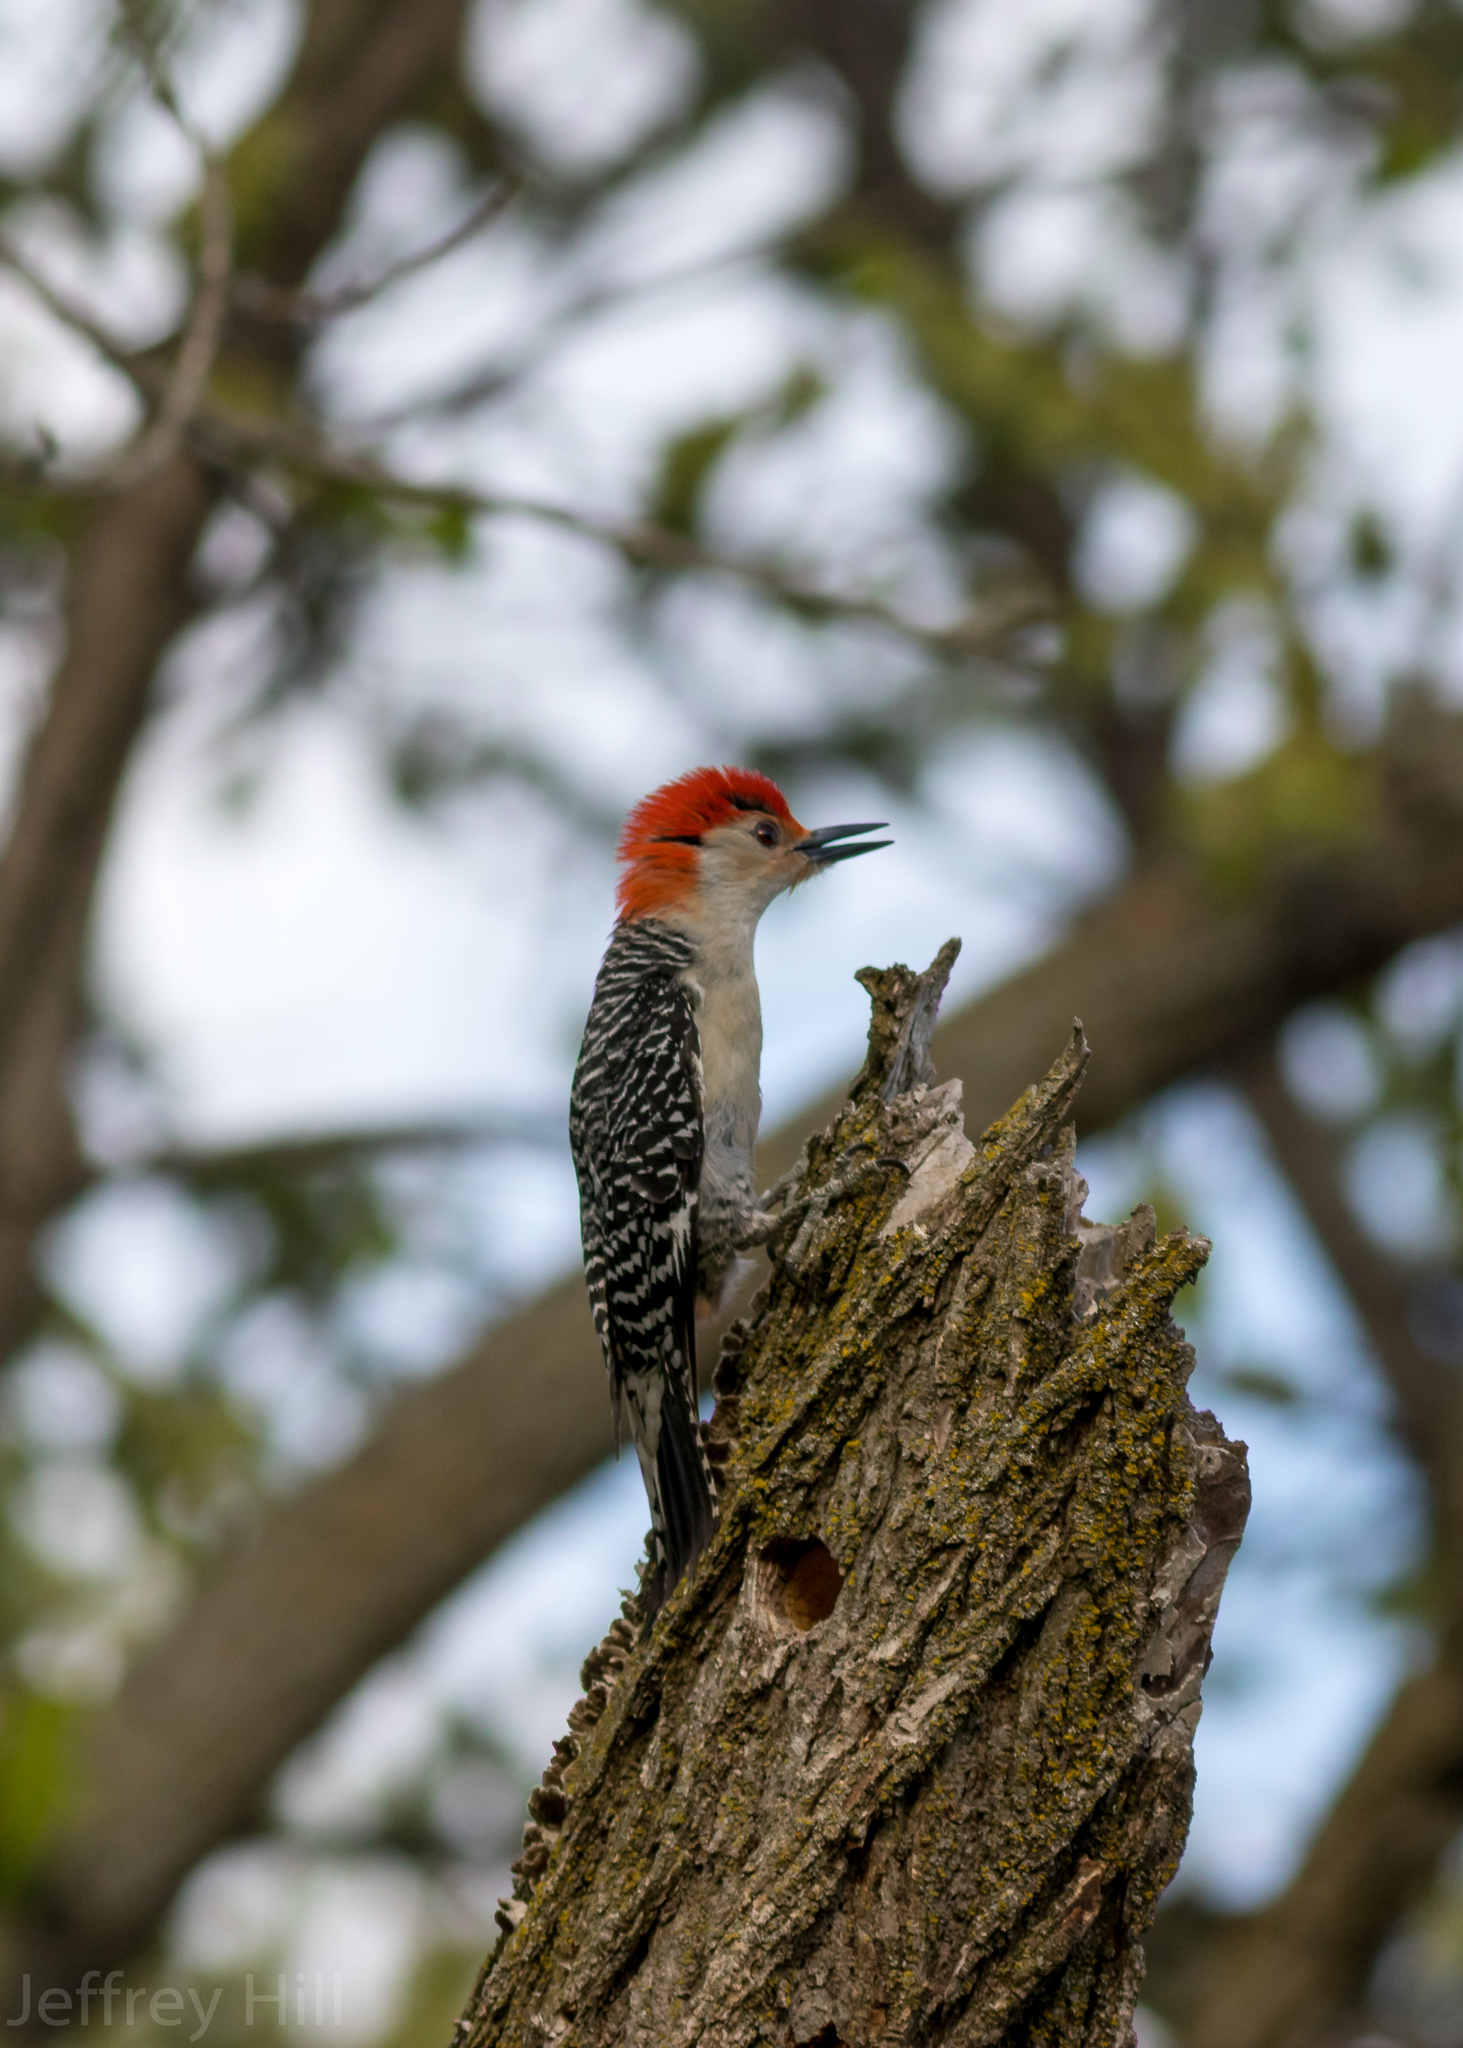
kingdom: Animalia
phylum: Chordata
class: Aves
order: Piciformes
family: Picidae
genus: Melanerpes
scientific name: Melanerpes carolinus
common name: Red-bellied woodpecker
